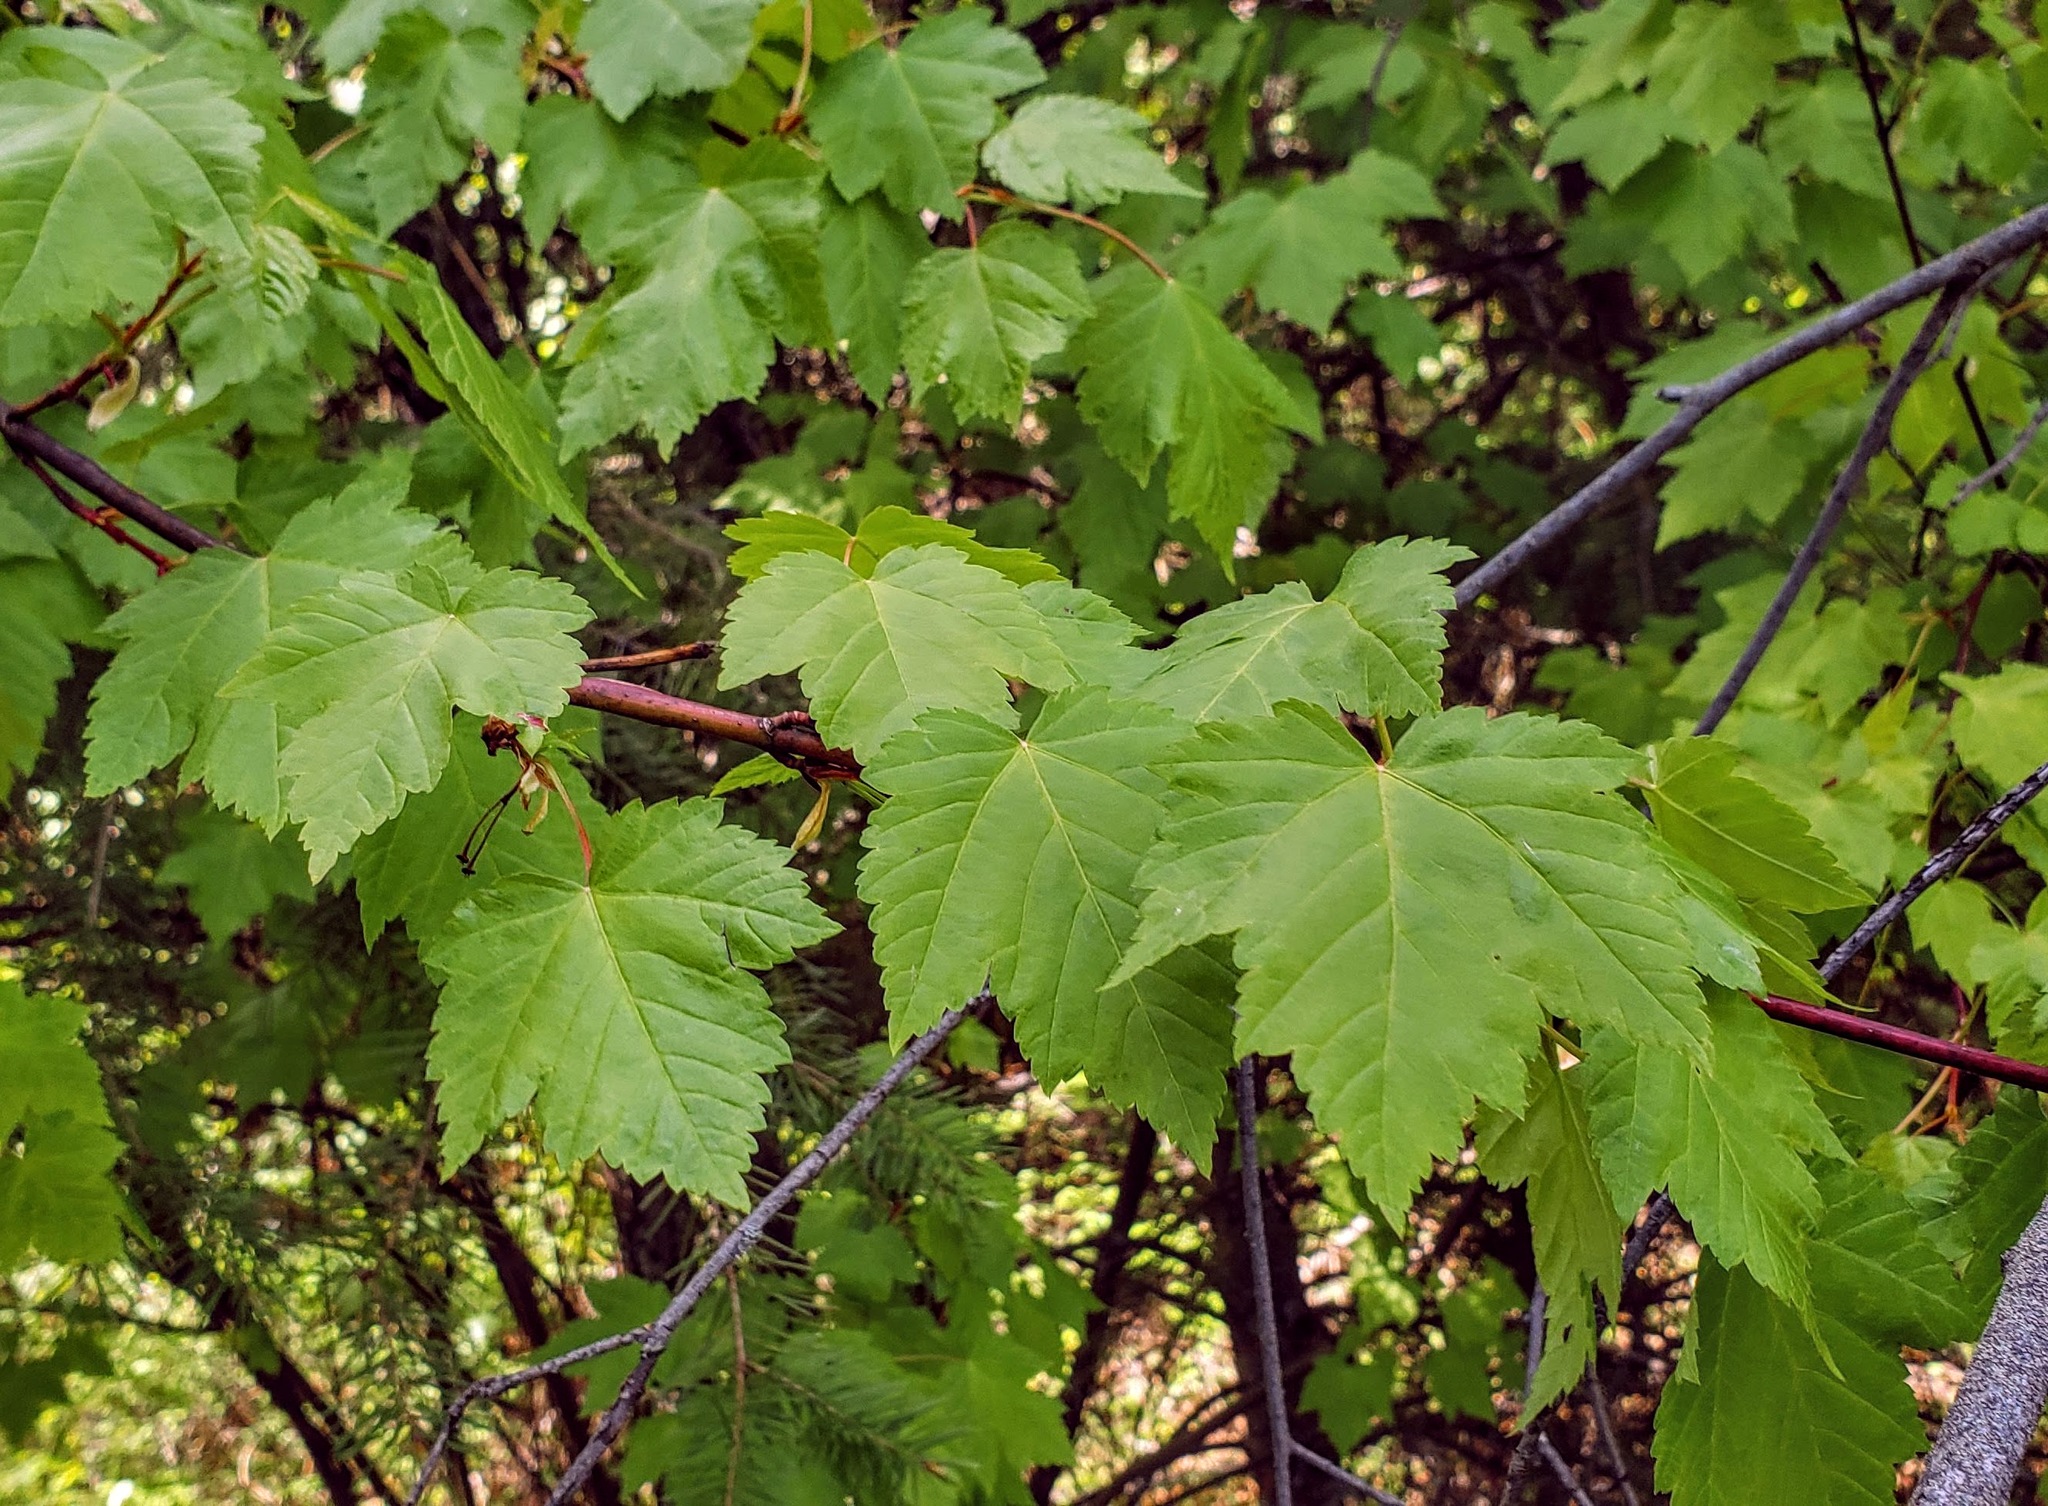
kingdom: Plantae
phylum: Tracheophyta
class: Magnoliopsida
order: Sapindales
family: Sapindaceae
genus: Acer
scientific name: Acer glabrum
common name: Rocky mountain maple
